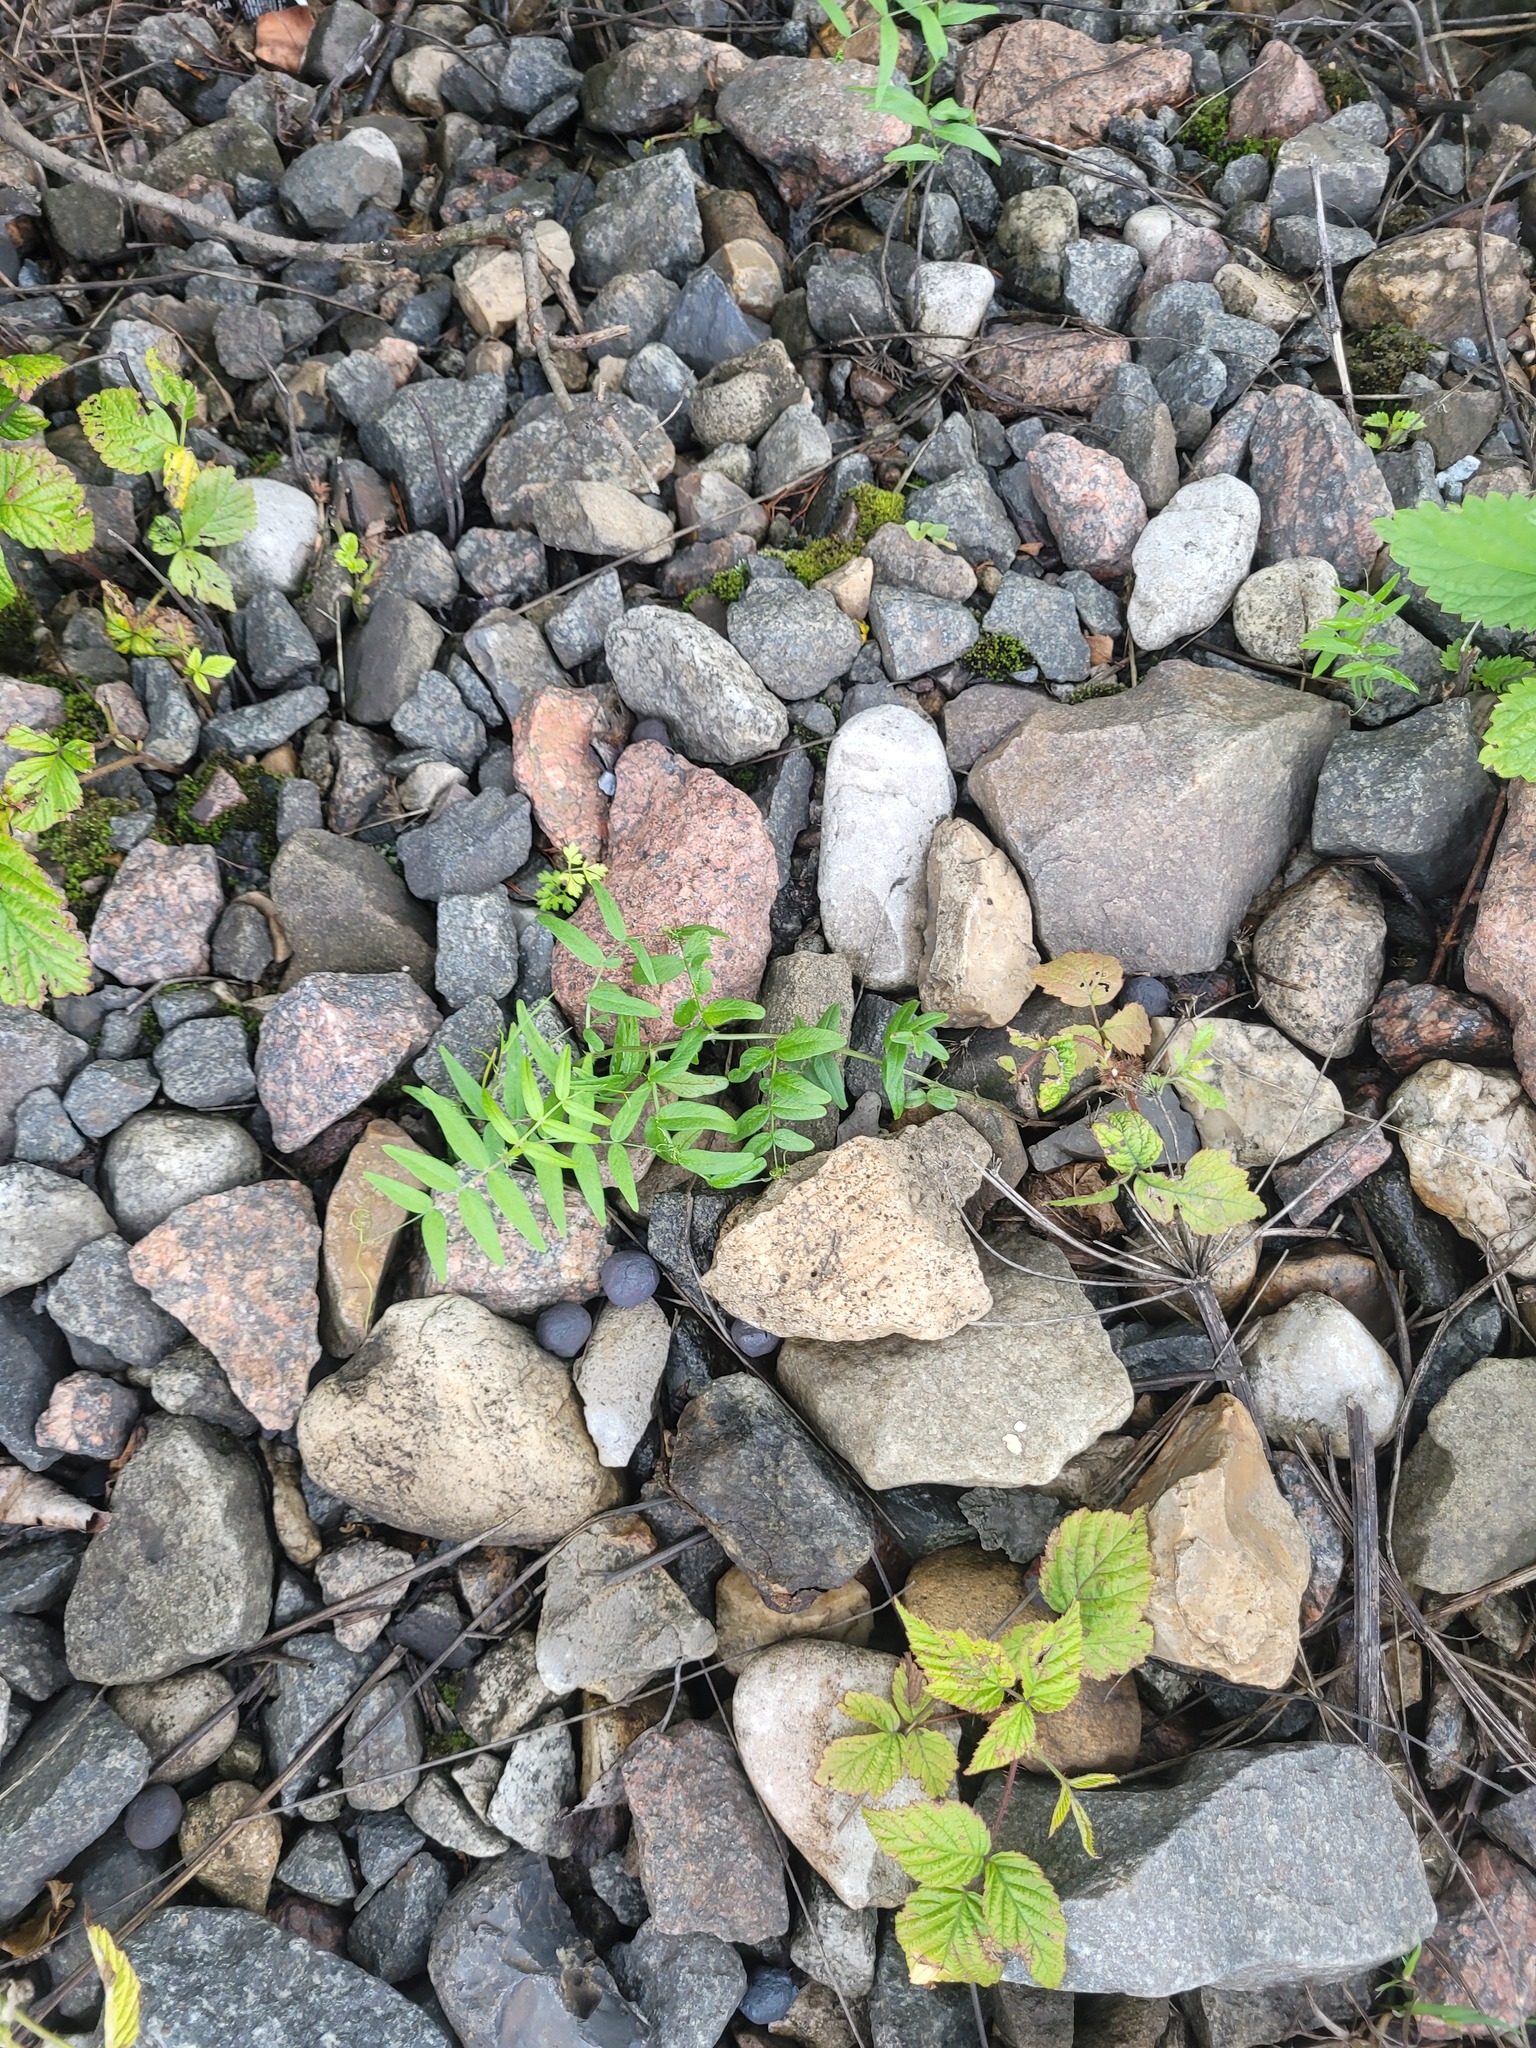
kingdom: Plantae
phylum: Tracheophyta
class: Magnoliopsida
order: Fabales
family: Fabaceae
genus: Vicia
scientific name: Vicia sepium
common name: Bush vetch
